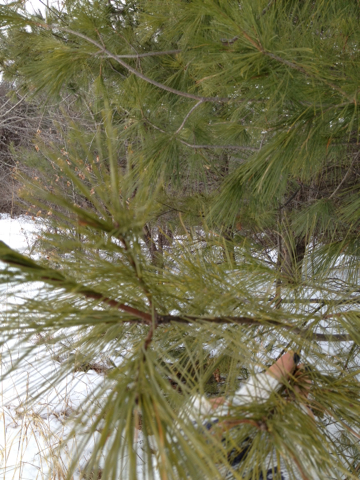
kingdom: Plantae
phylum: Tracheophyta
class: Pinopsida
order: Pinales
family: Pinaceae
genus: Pinus
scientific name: Pinus strobus
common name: Weymouth pine
